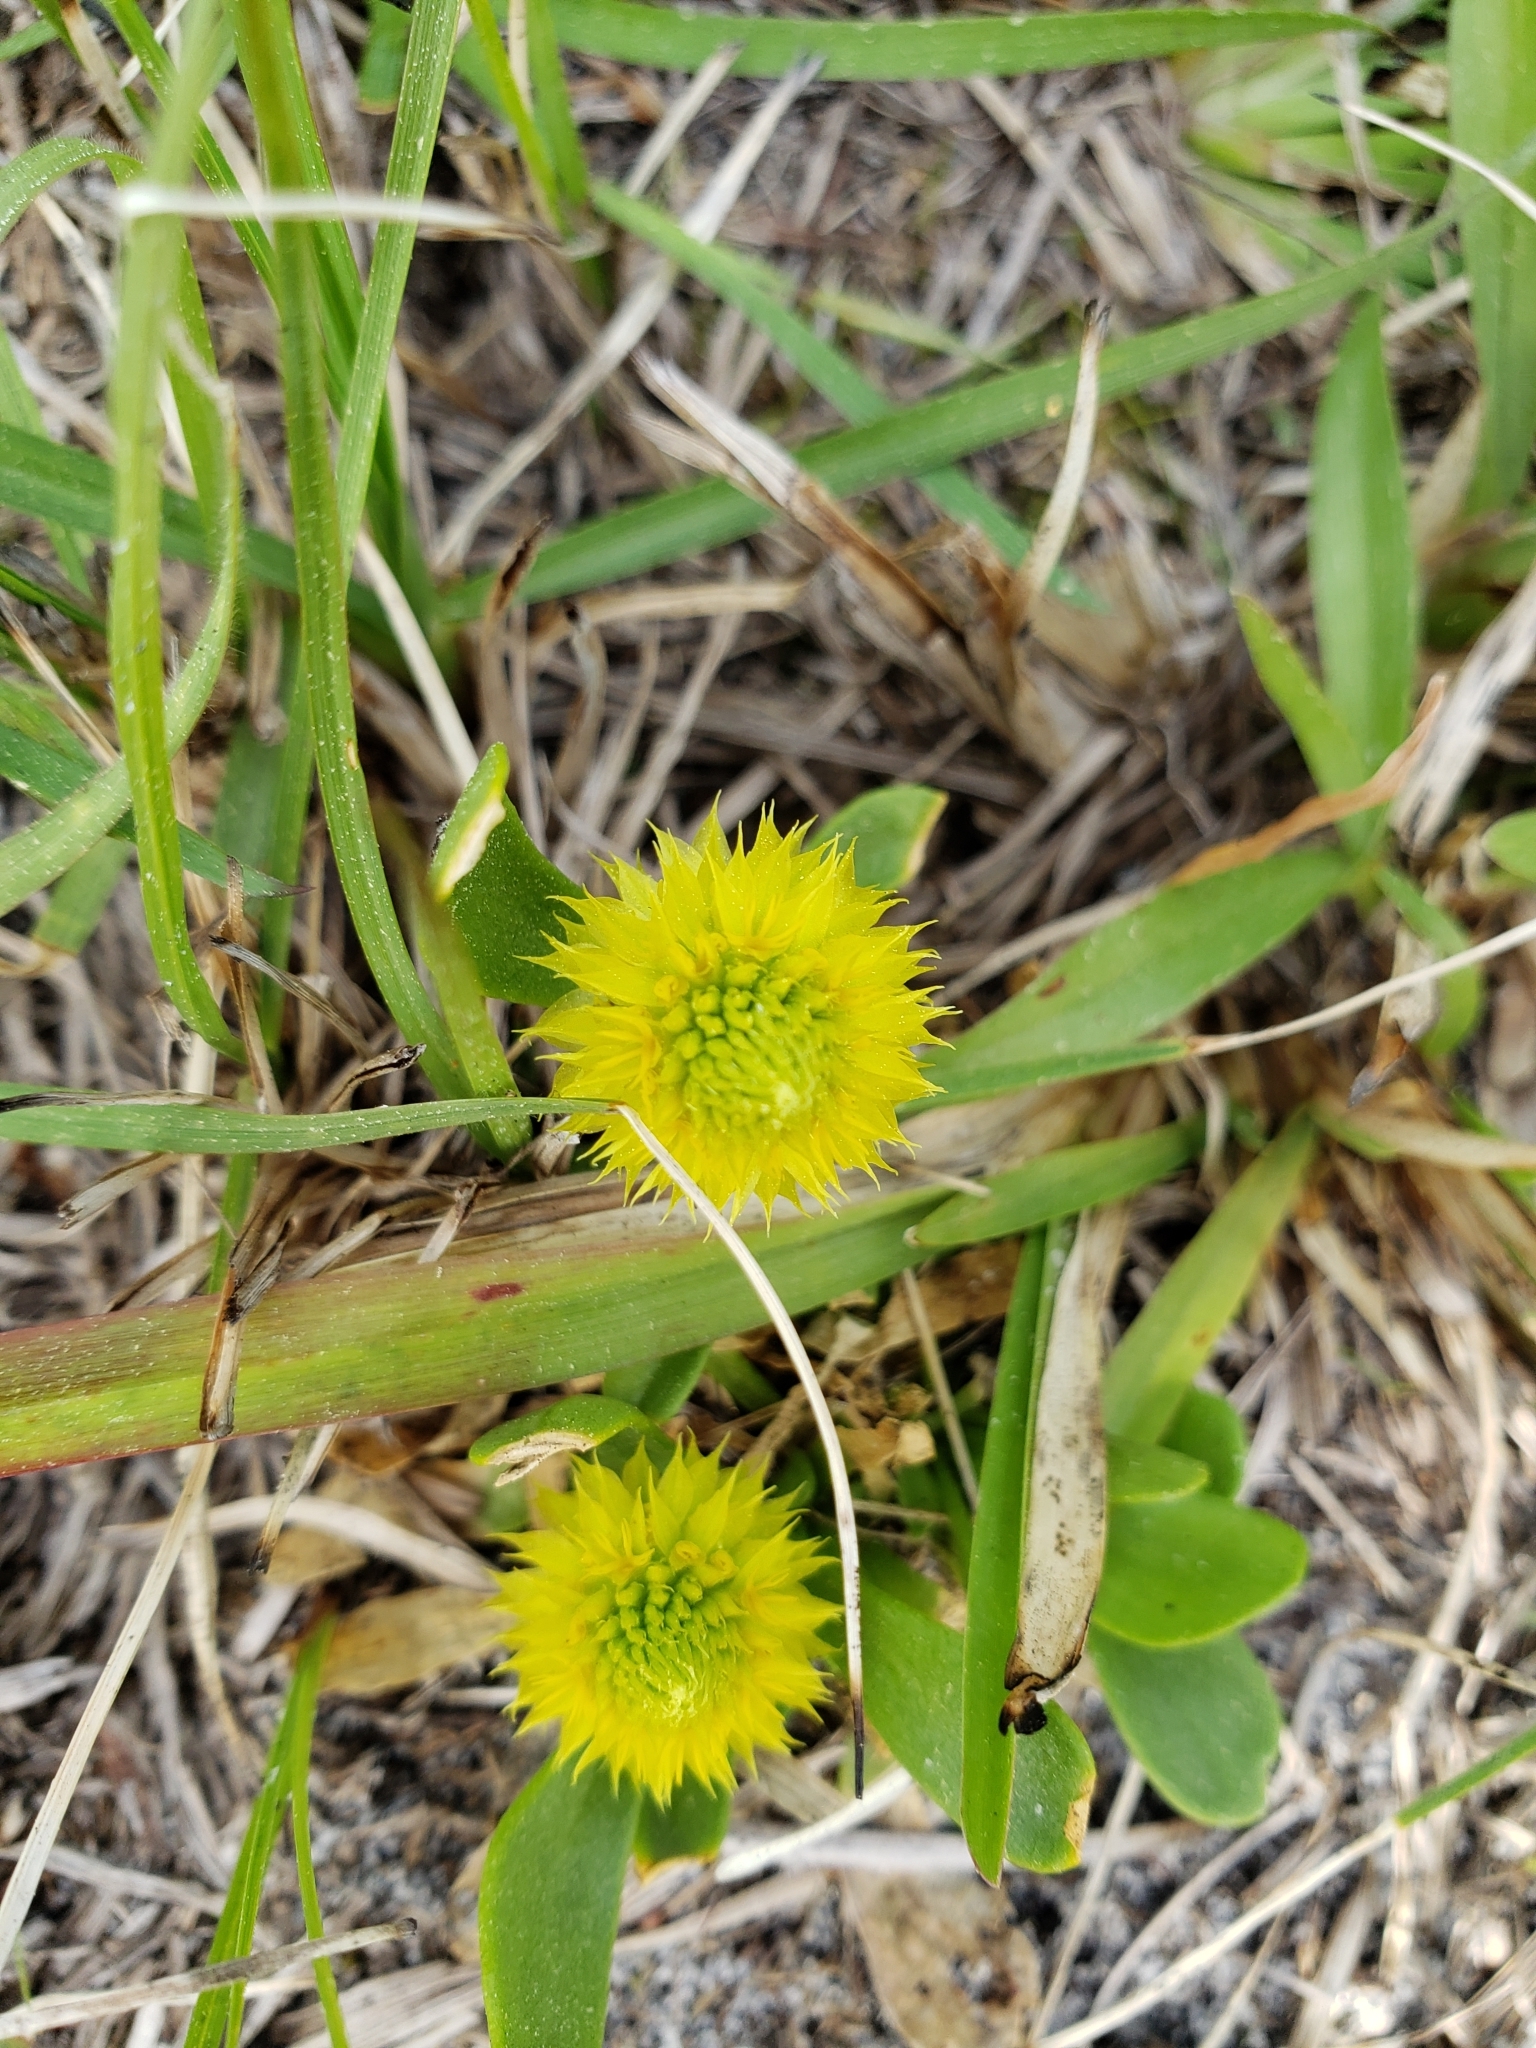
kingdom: Plantae
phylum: Tracheophyta
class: Magnoliopsida
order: Fabales
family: Polygalaceae
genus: Polygala
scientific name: Polygala nana
